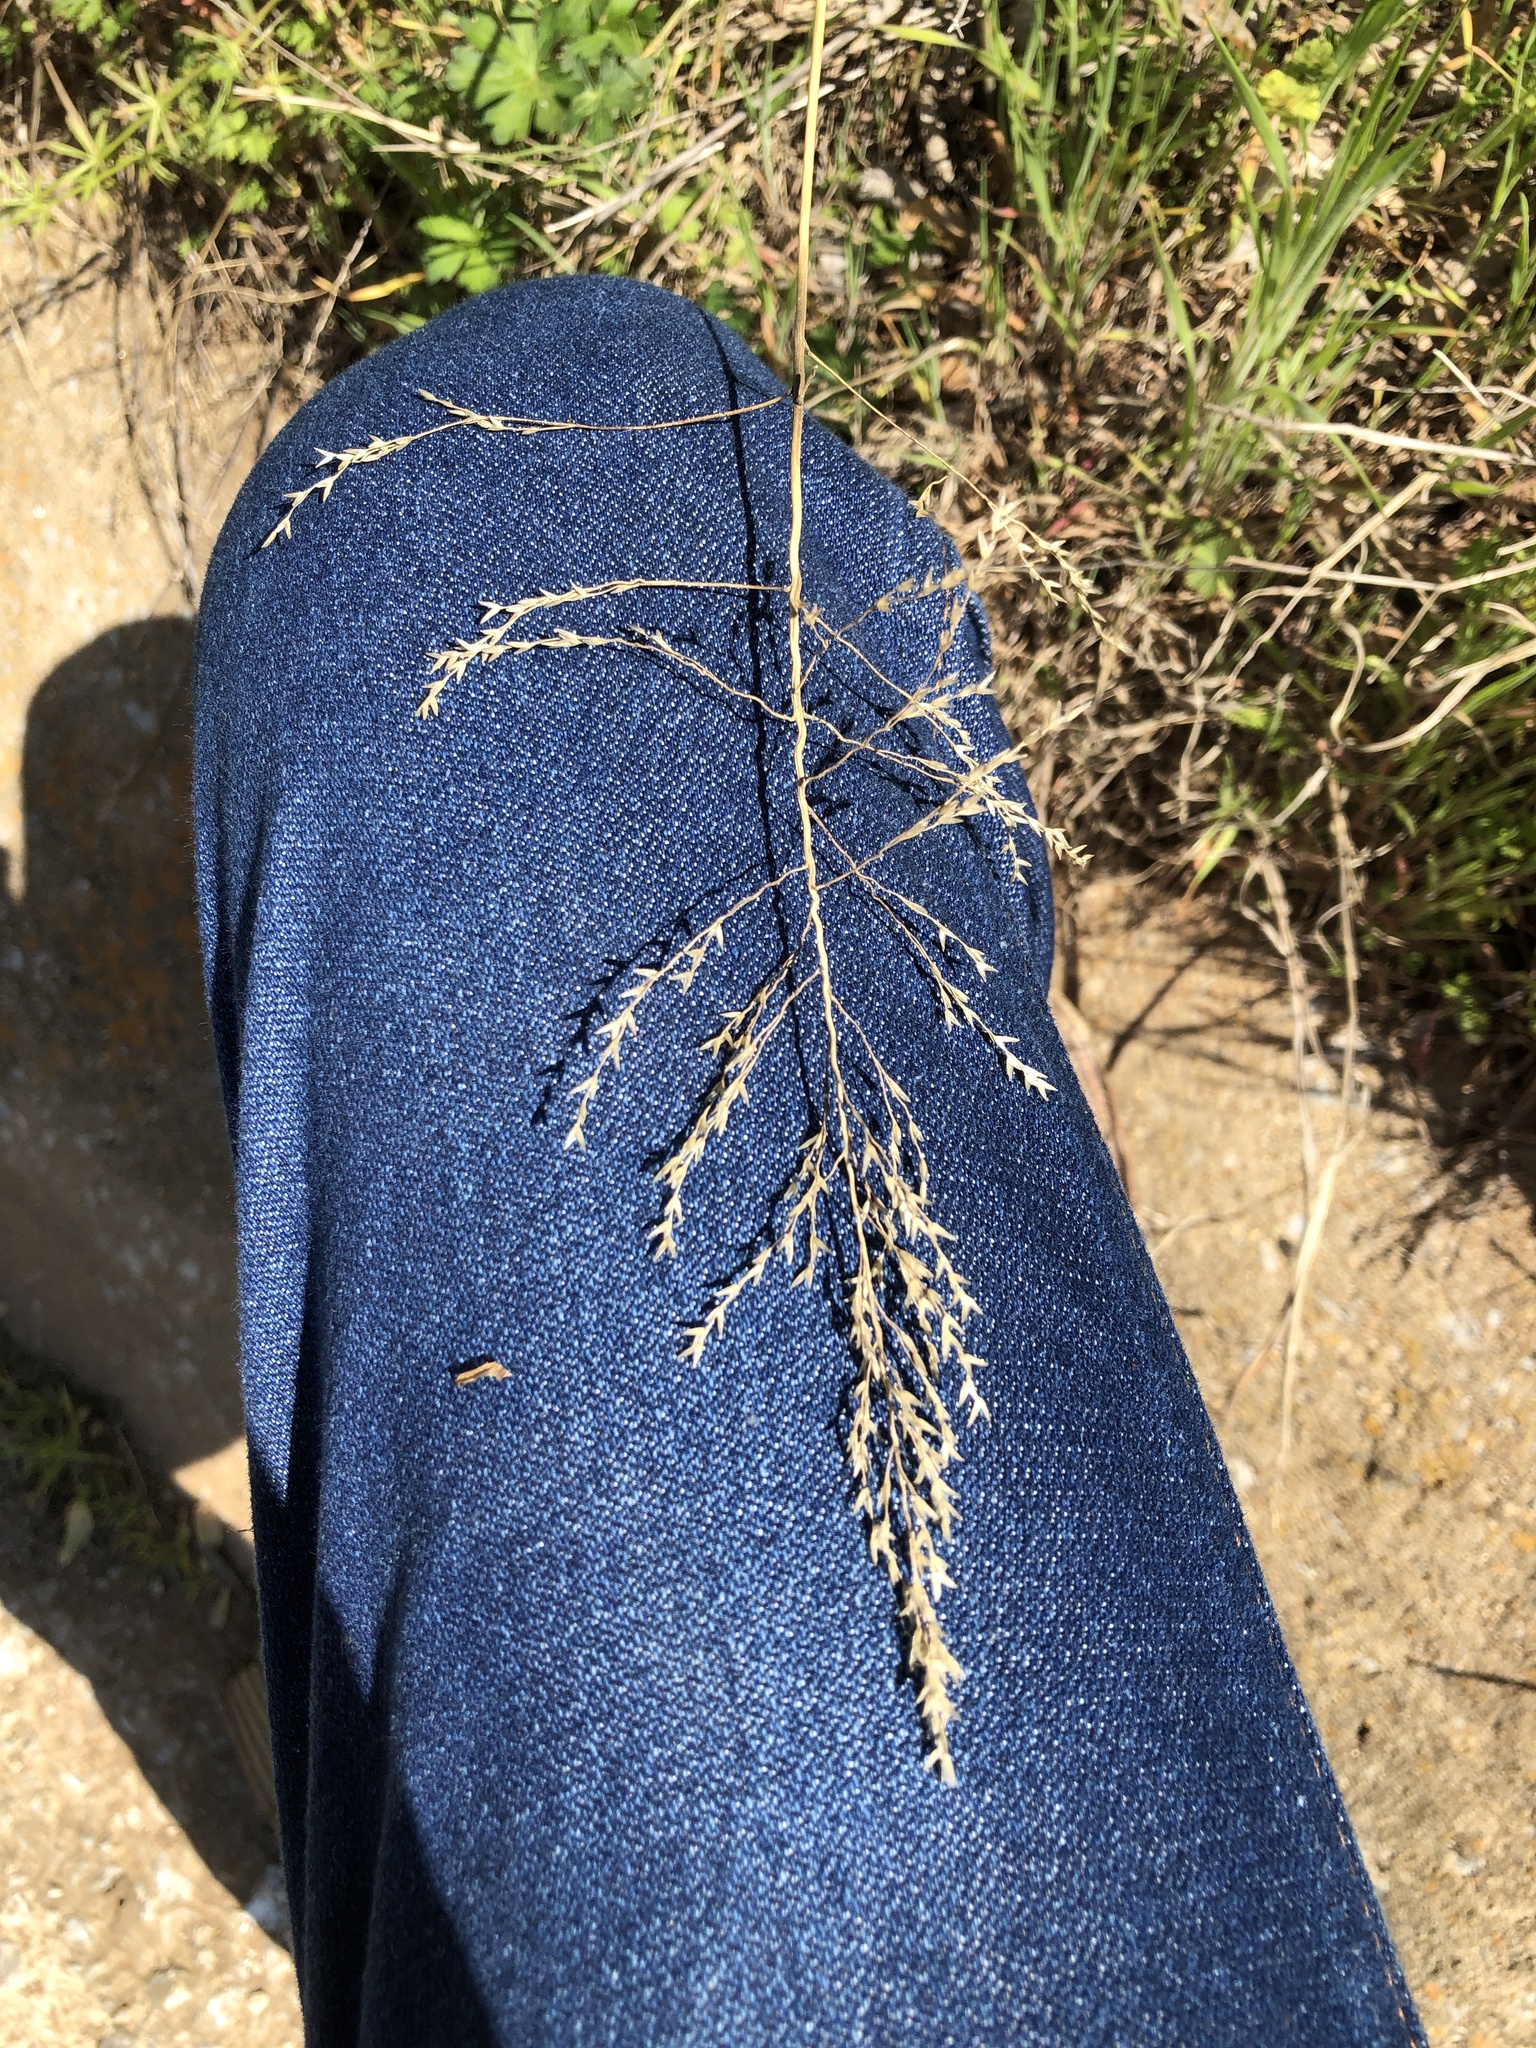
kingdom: Plantae
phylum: Tracheophyta
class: Liliopsida
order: Poales
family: Poaceae
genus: Tridens
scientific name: Tridens flavus
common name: Purpletop
